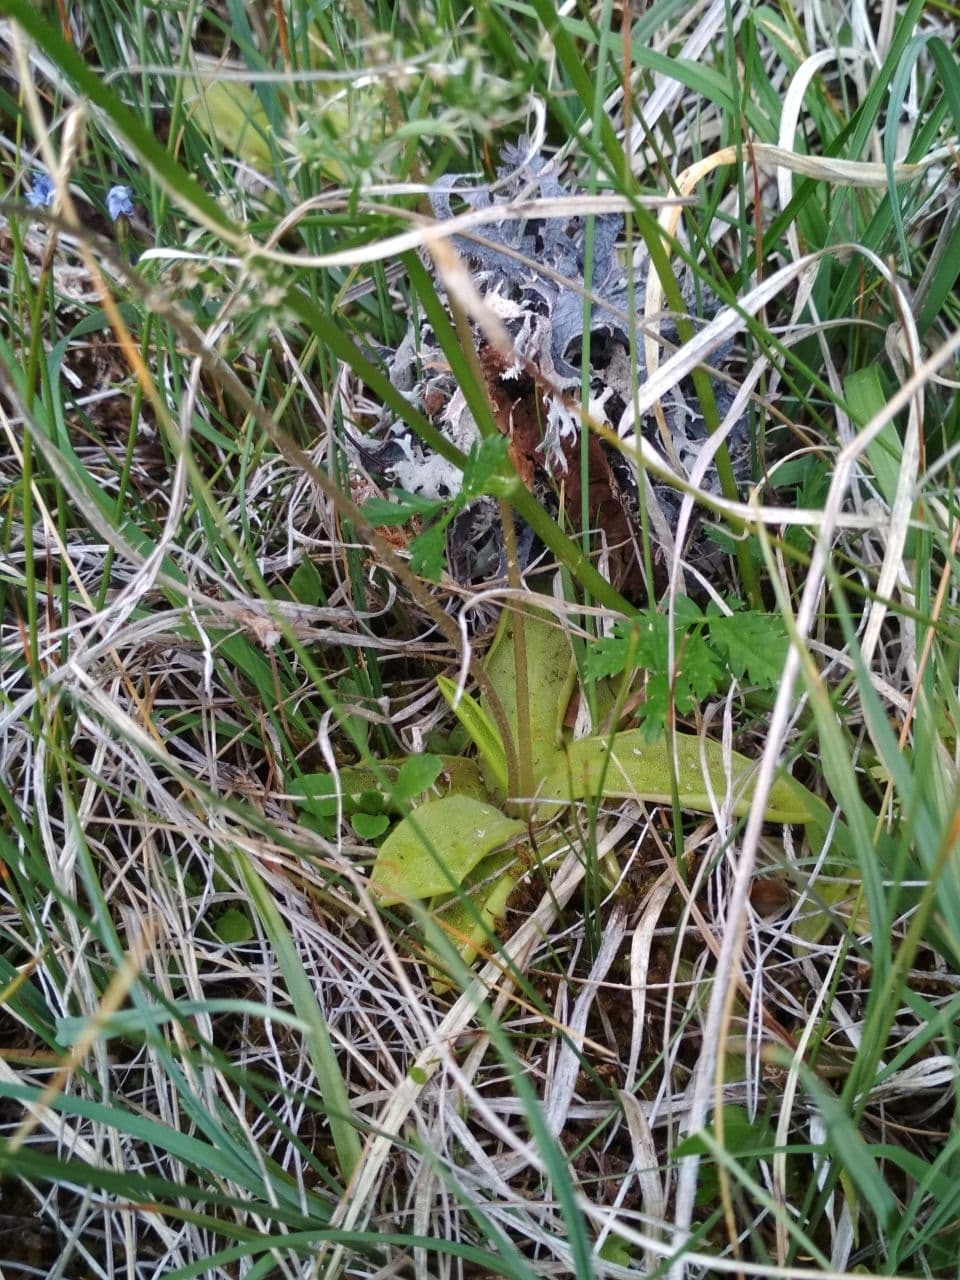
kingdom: Plantae
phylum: Tracheophyta
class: Magnoliopsida
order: Lamiales
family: Lentibulariaceae
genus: Pinguicula
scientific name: Pinguicula vulgaris
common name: Common butterwort
